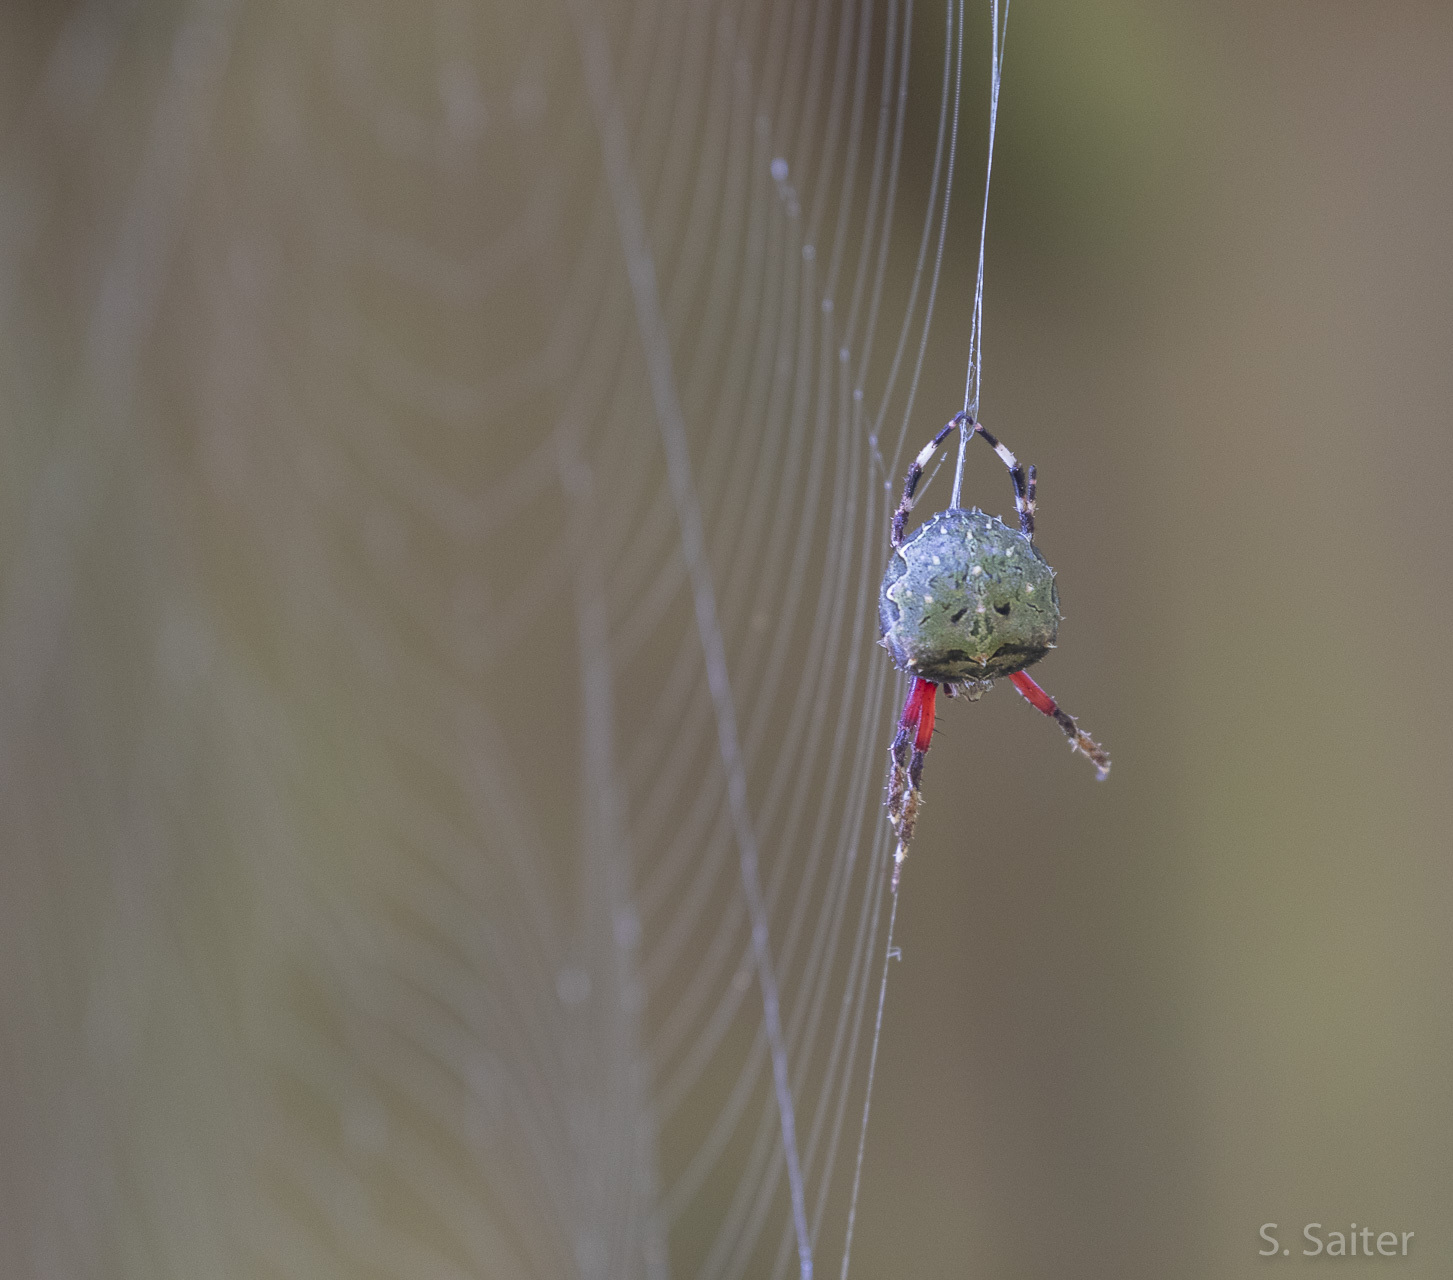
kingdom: Animalia
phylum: Arthropoda
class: Arachnida
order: Araneae
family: Araneidae
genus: Molinaranea
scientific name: Molinaranea clymene
